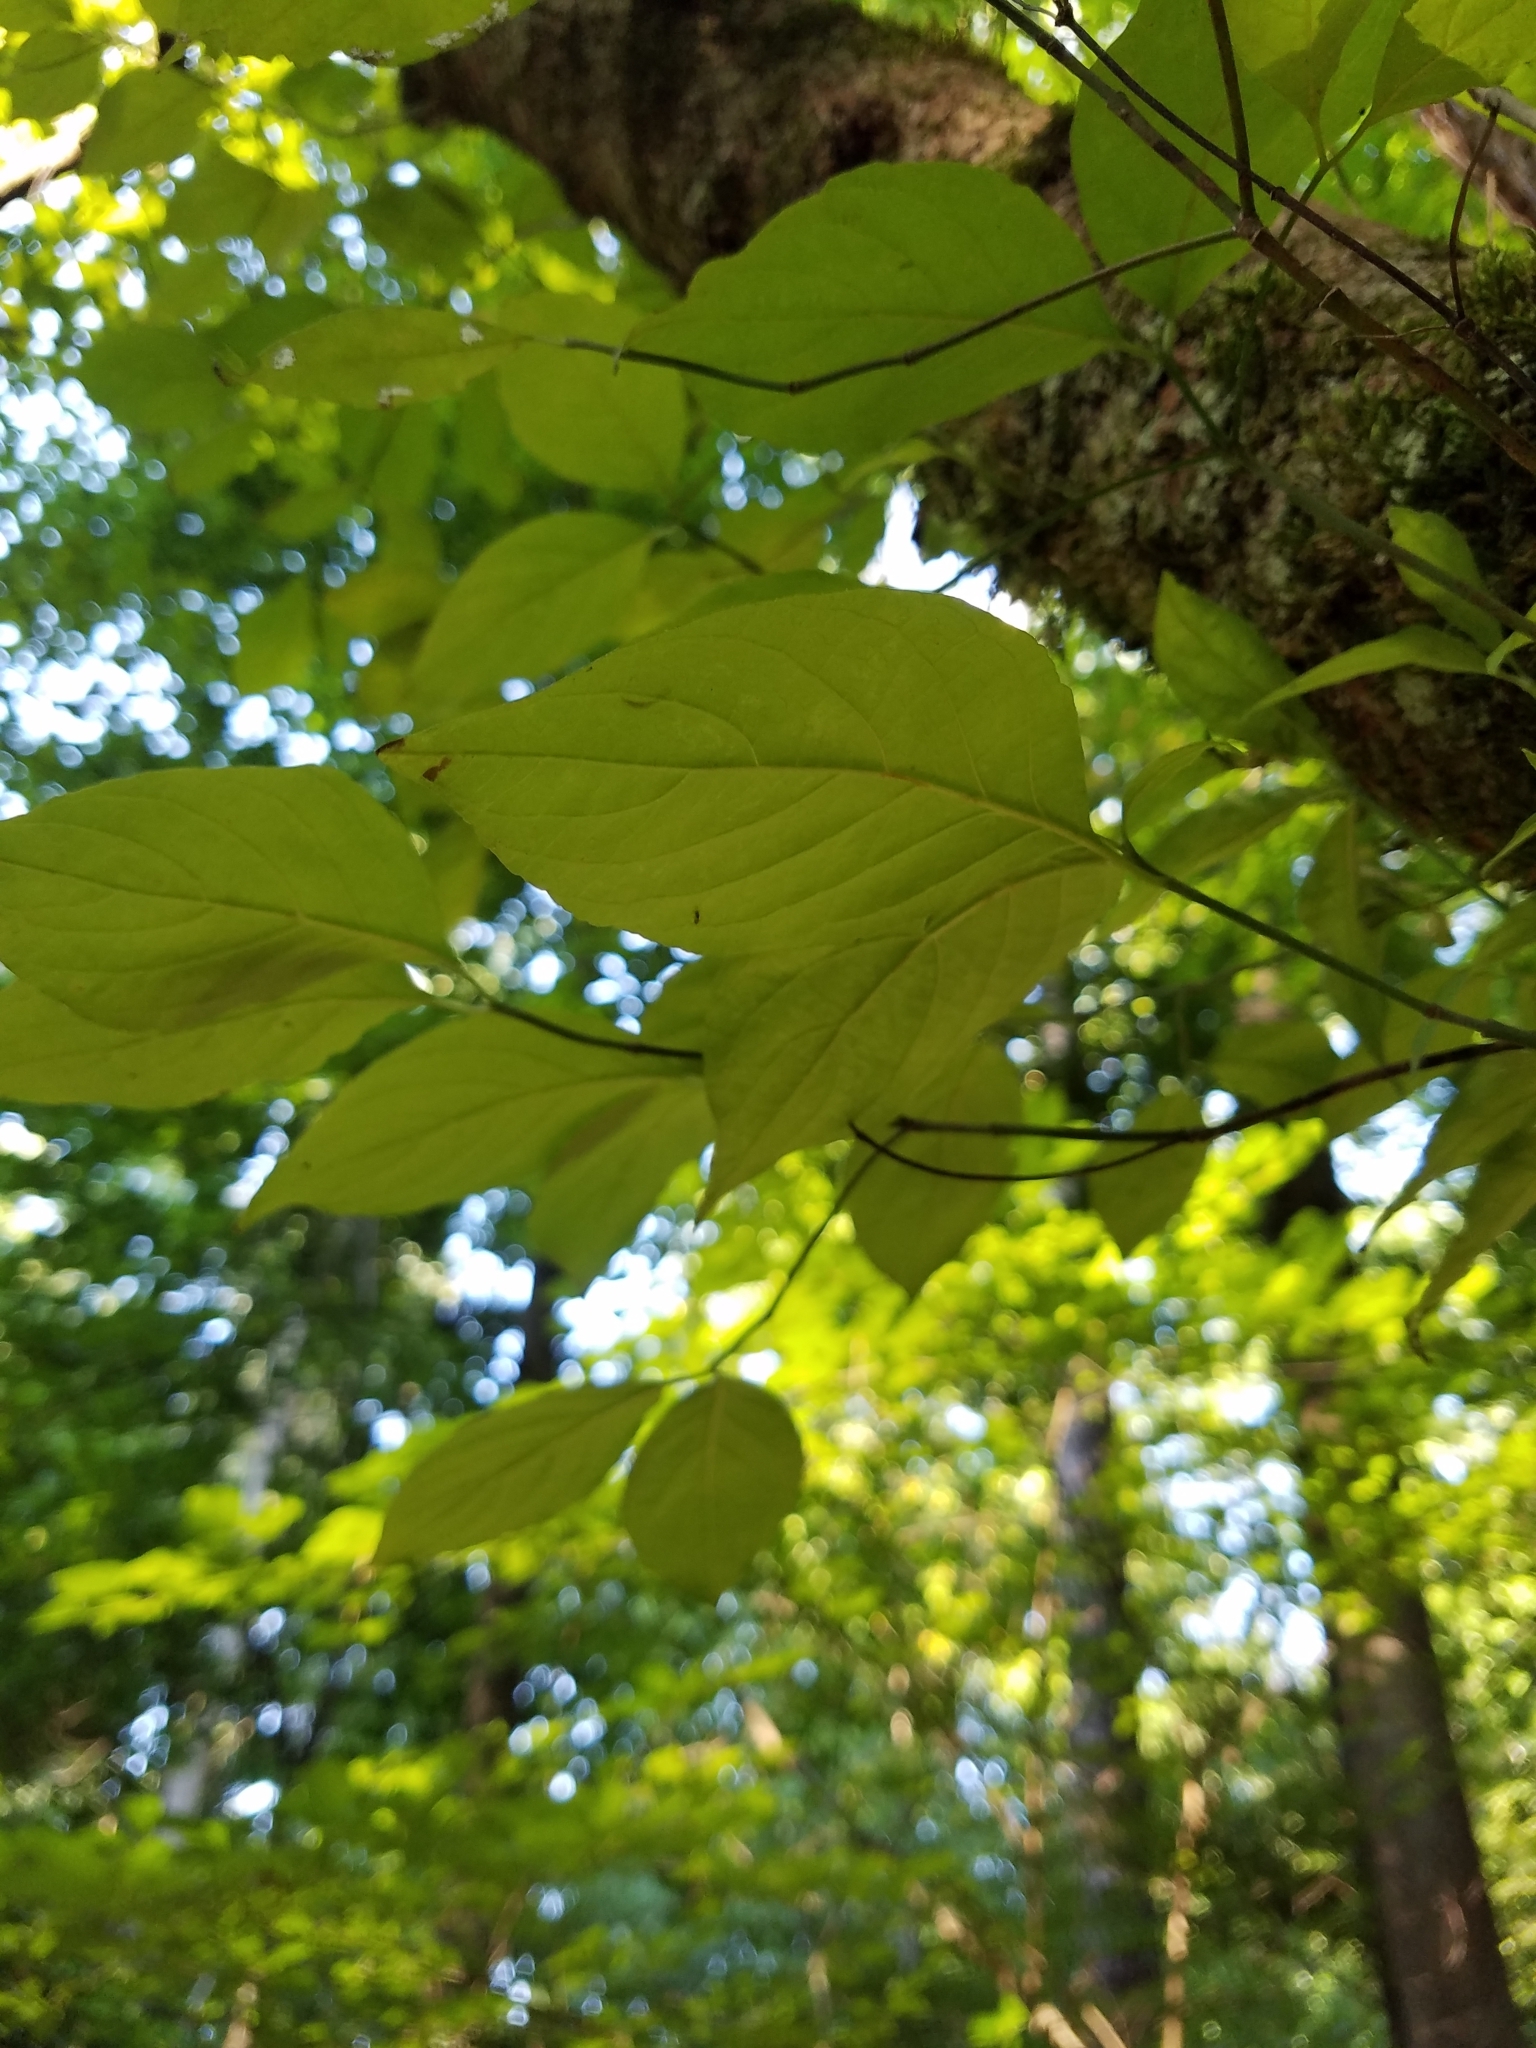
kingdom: Plantae
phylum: Tracheophyta
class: Magnoliopsida
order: Cornales
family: Cornaceae
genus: Cornus
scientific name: Cornus florida
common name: Flowering dogwood
